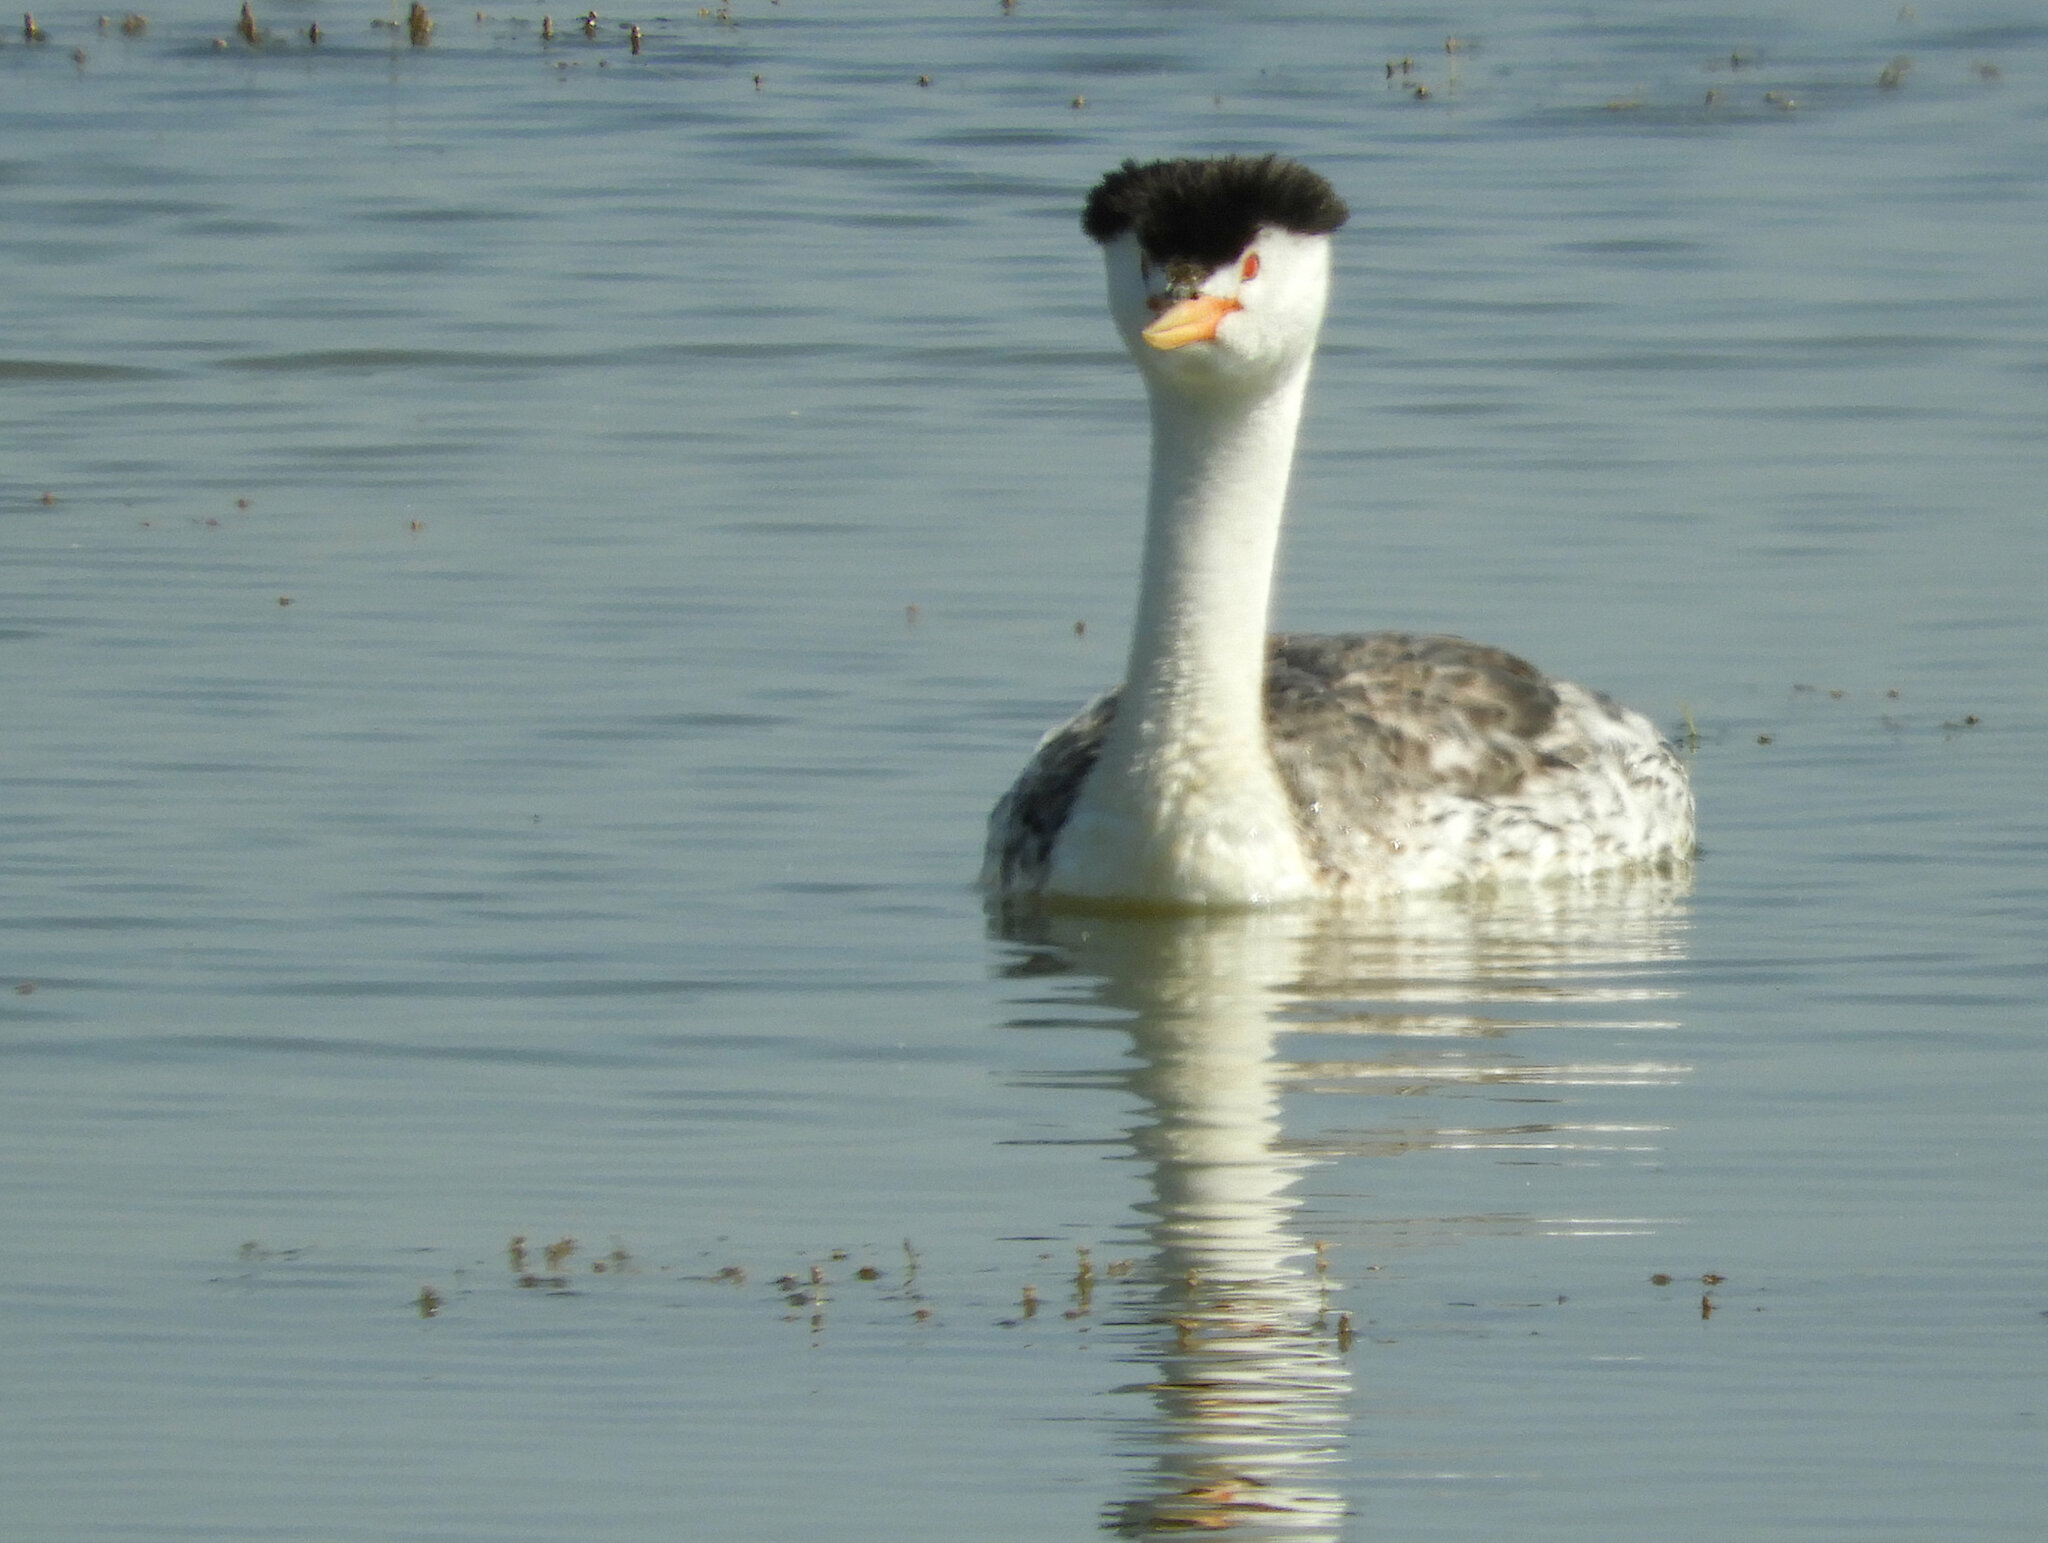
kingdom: Animalia
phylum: Chordata
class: Aves
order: Podicipediformes
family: Podicipedidae
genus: Aechmophorus
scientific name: Aechmophorus clarkii
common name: Clark's grebe
